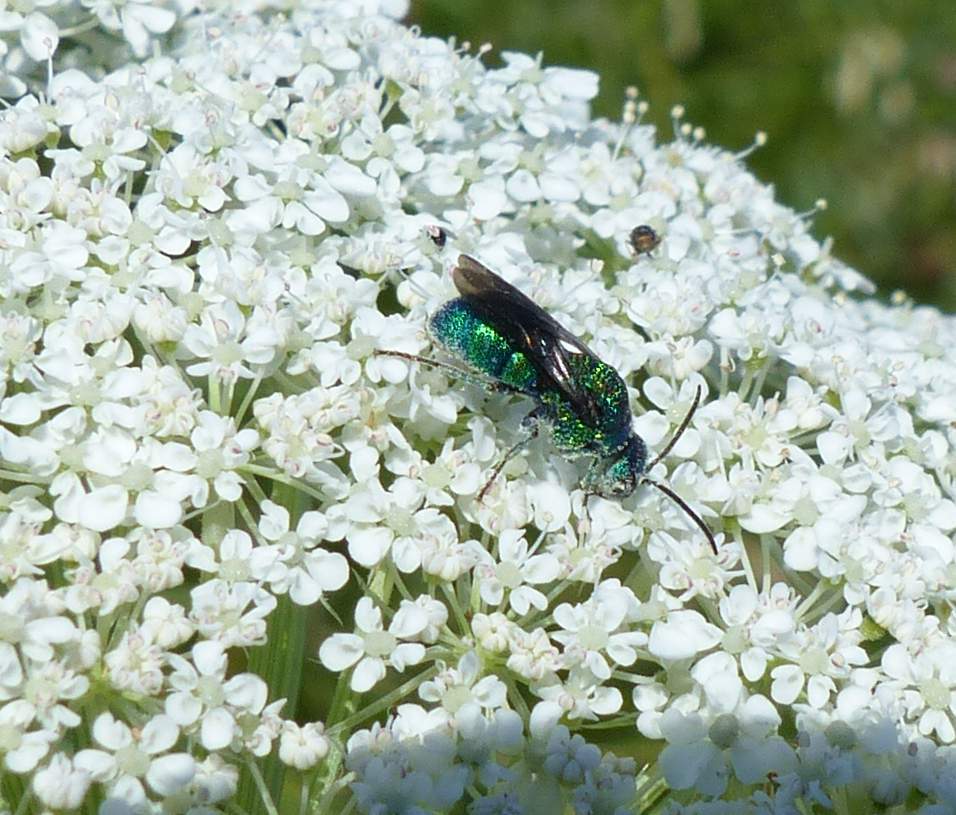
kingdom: Animalia
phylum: Arthropoda
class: Insecta
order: Hymenoptera
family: Chrysididae
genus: Holopyga
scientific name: Holopyga
